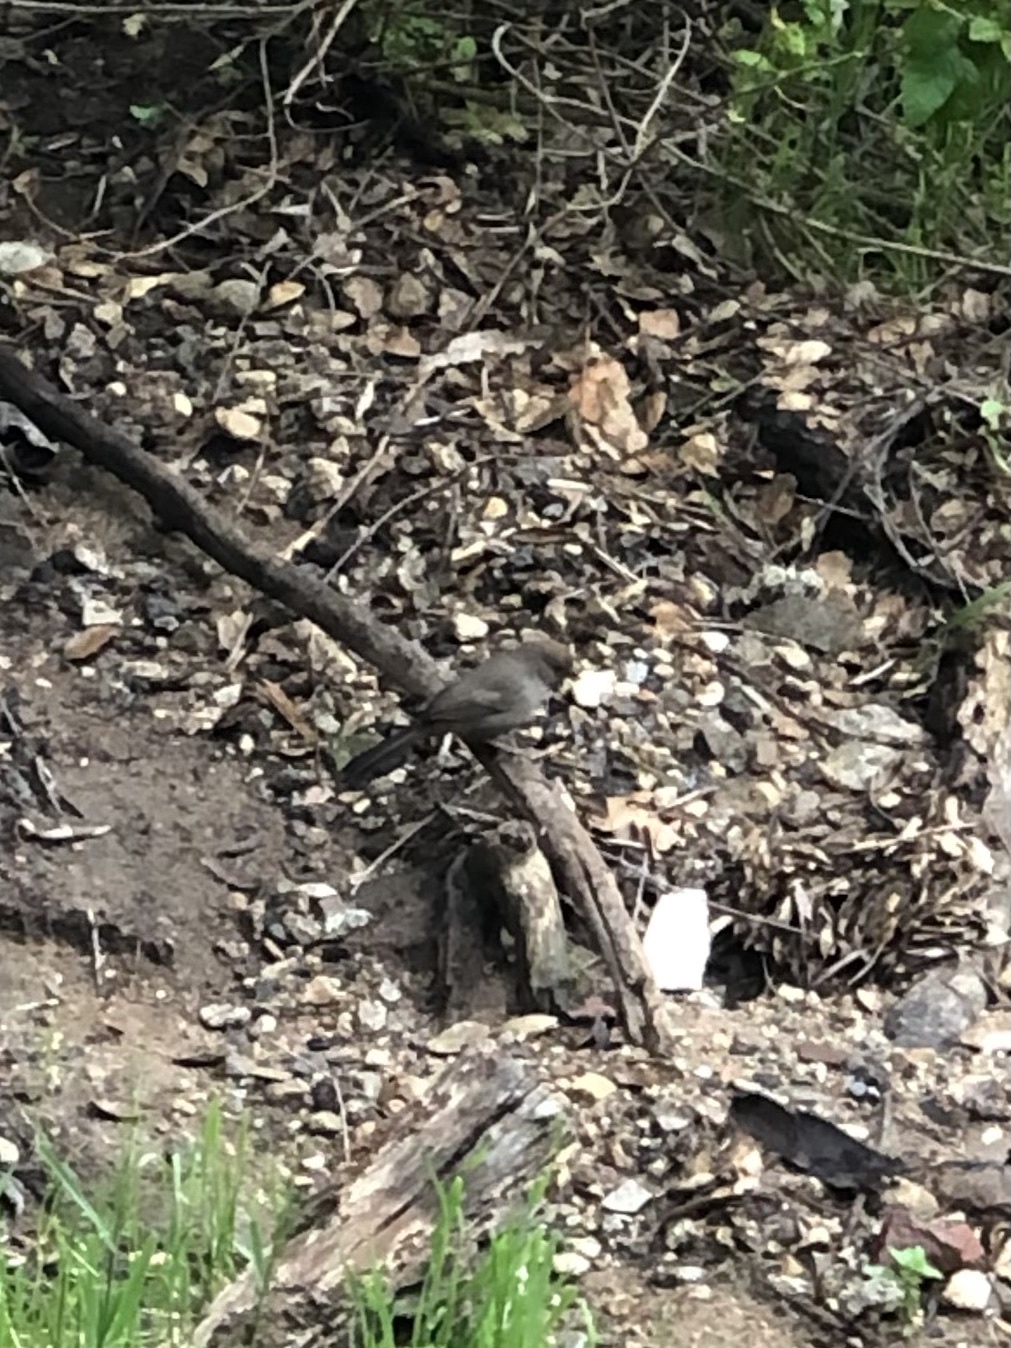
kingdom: Animalia
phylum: Chordata
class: Aves
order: Passeriformes
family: Passerellidae
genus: Melozone
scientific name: Melozone crissalis
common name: California towhee
